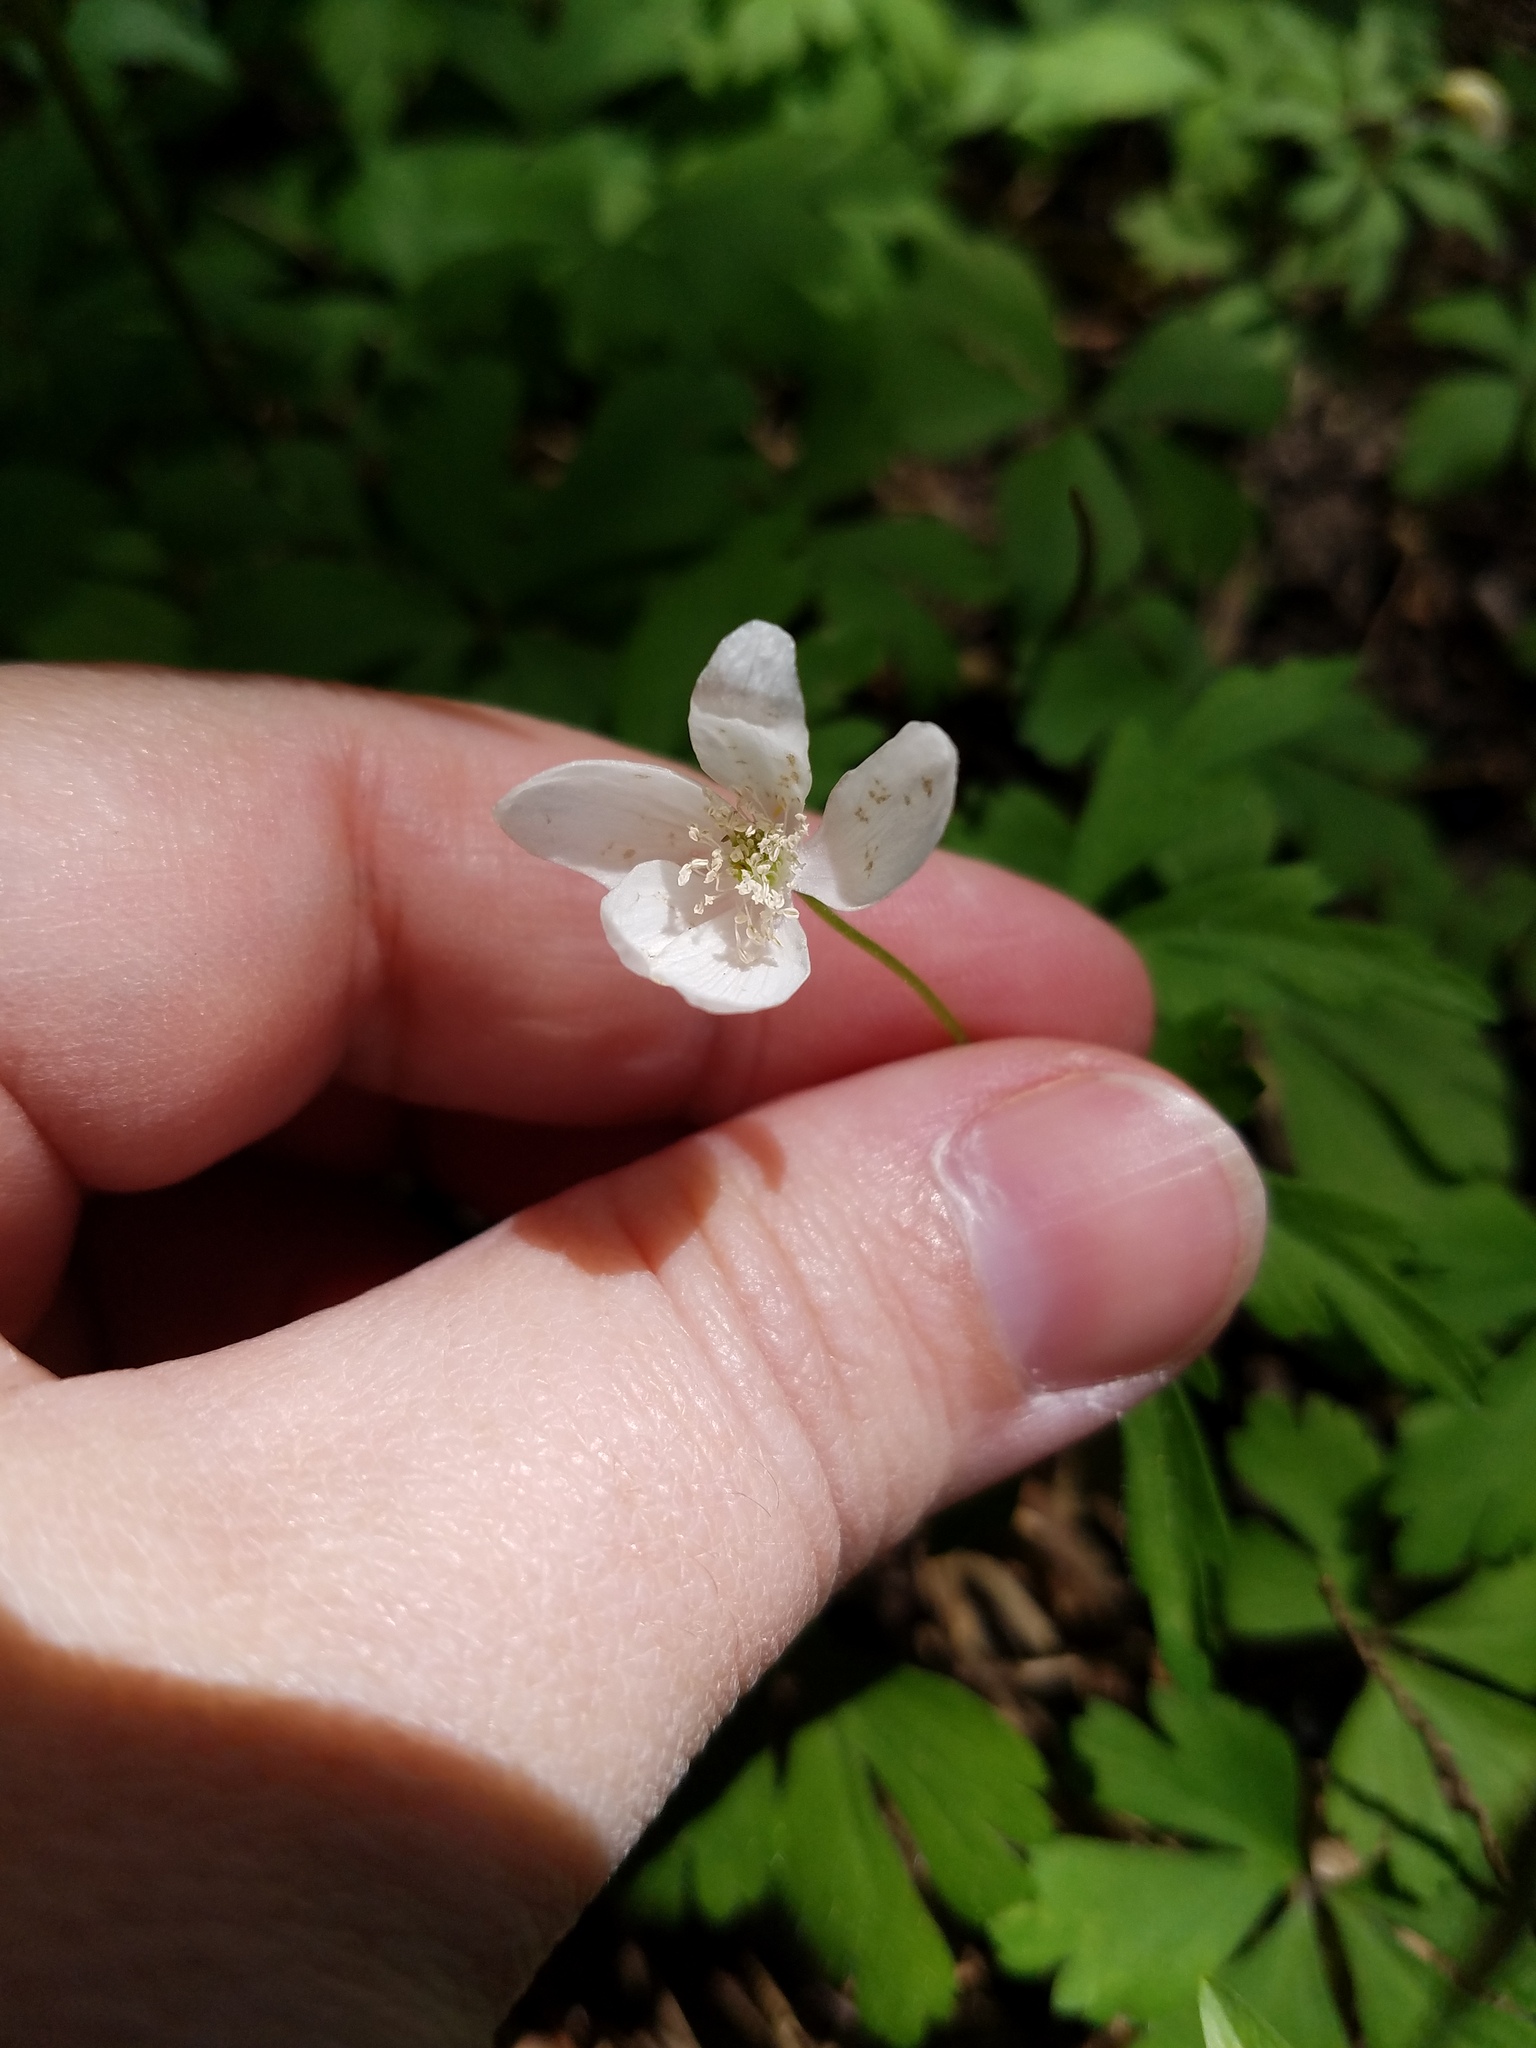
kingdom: Plantae
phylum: Tracheophyta
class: Magnoliopsida
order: Ranunculales
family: Ranunculaceae
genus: Anemone
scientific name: Anemone quinquefolia
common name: Wood anemone
